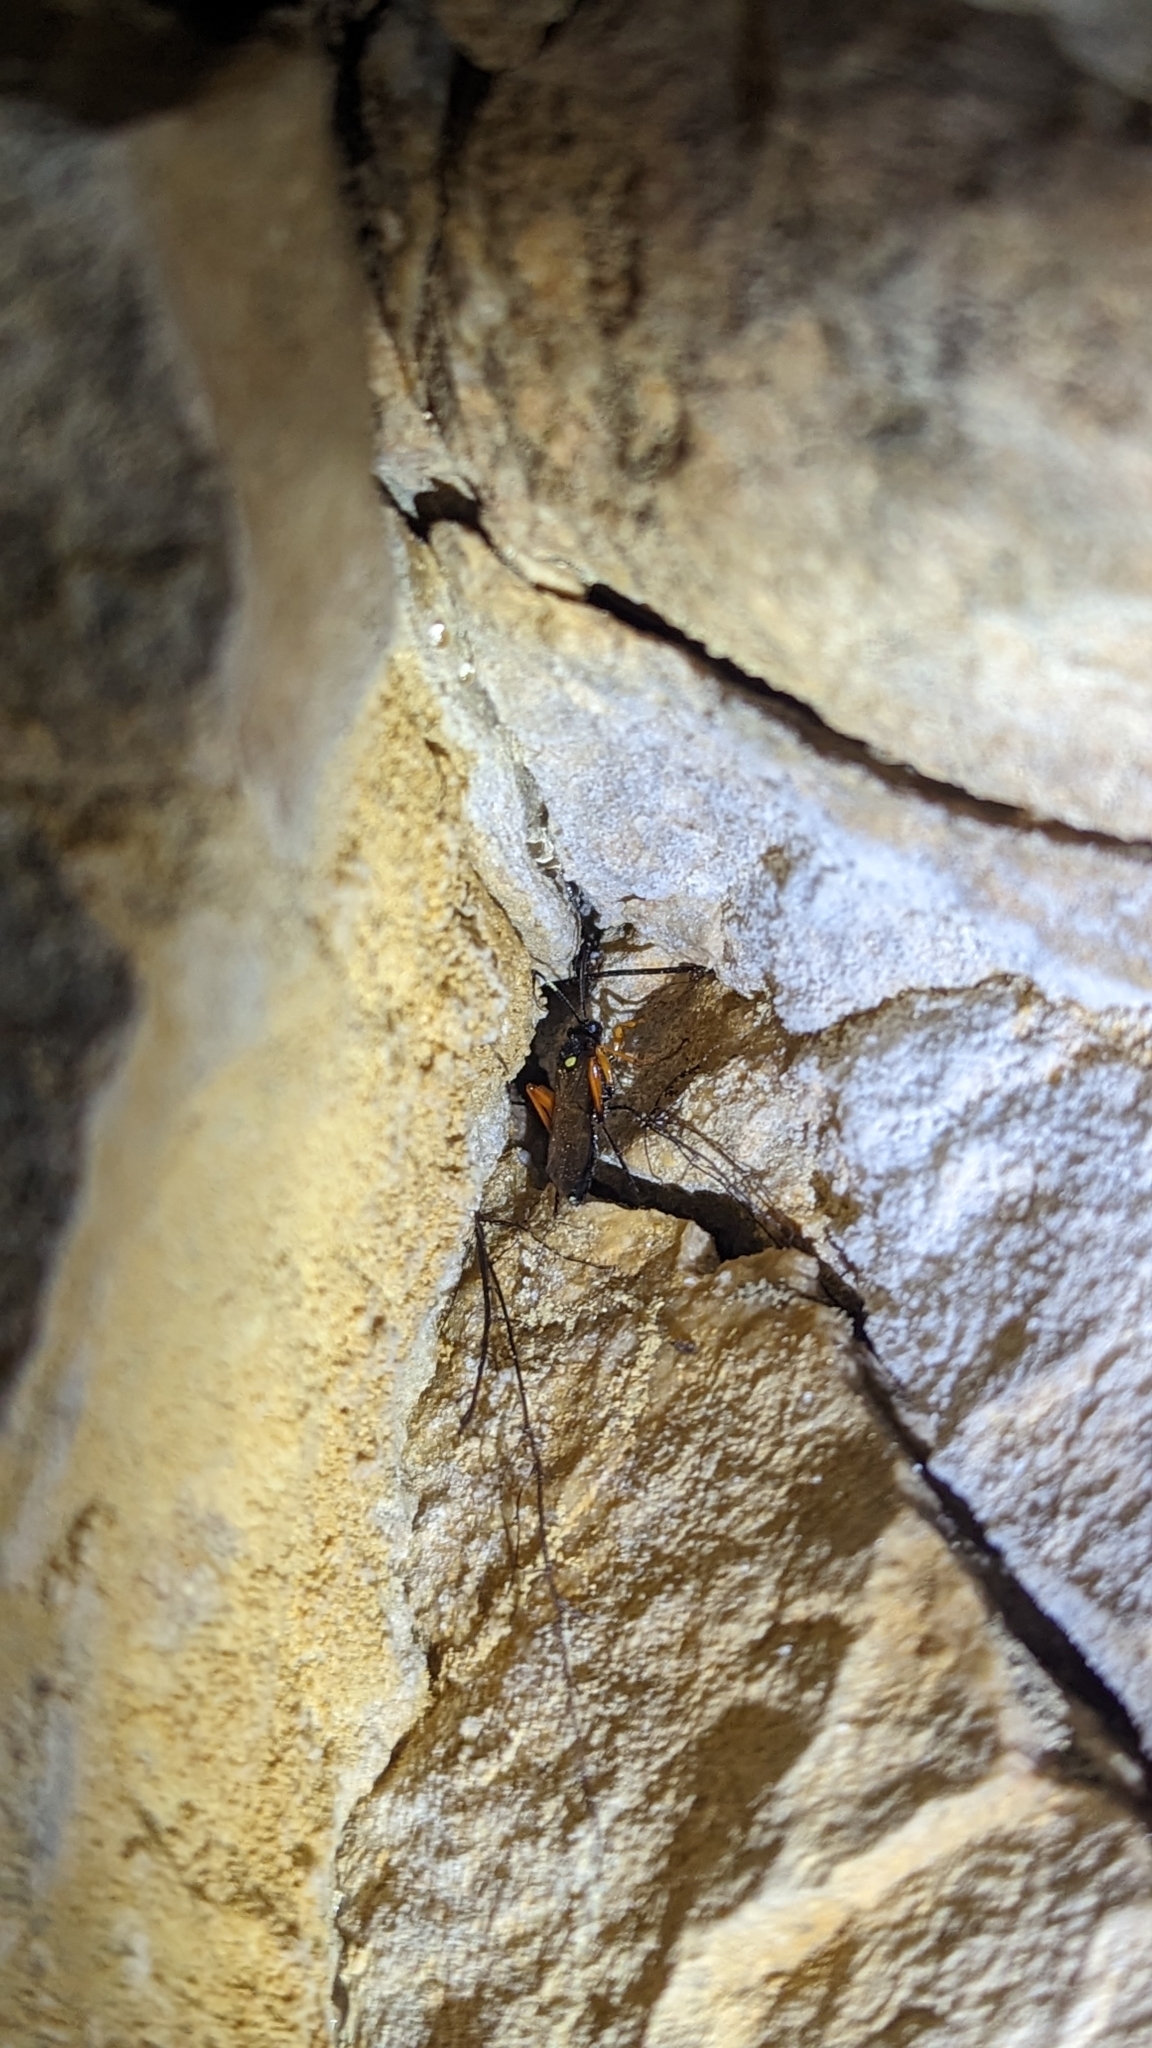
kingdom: Animalia
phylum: Arthropoda
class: Insecta
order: Hymenoptera
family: Ichneumonidae
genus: Diphyus
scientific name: Diphyus quadripunctorius
